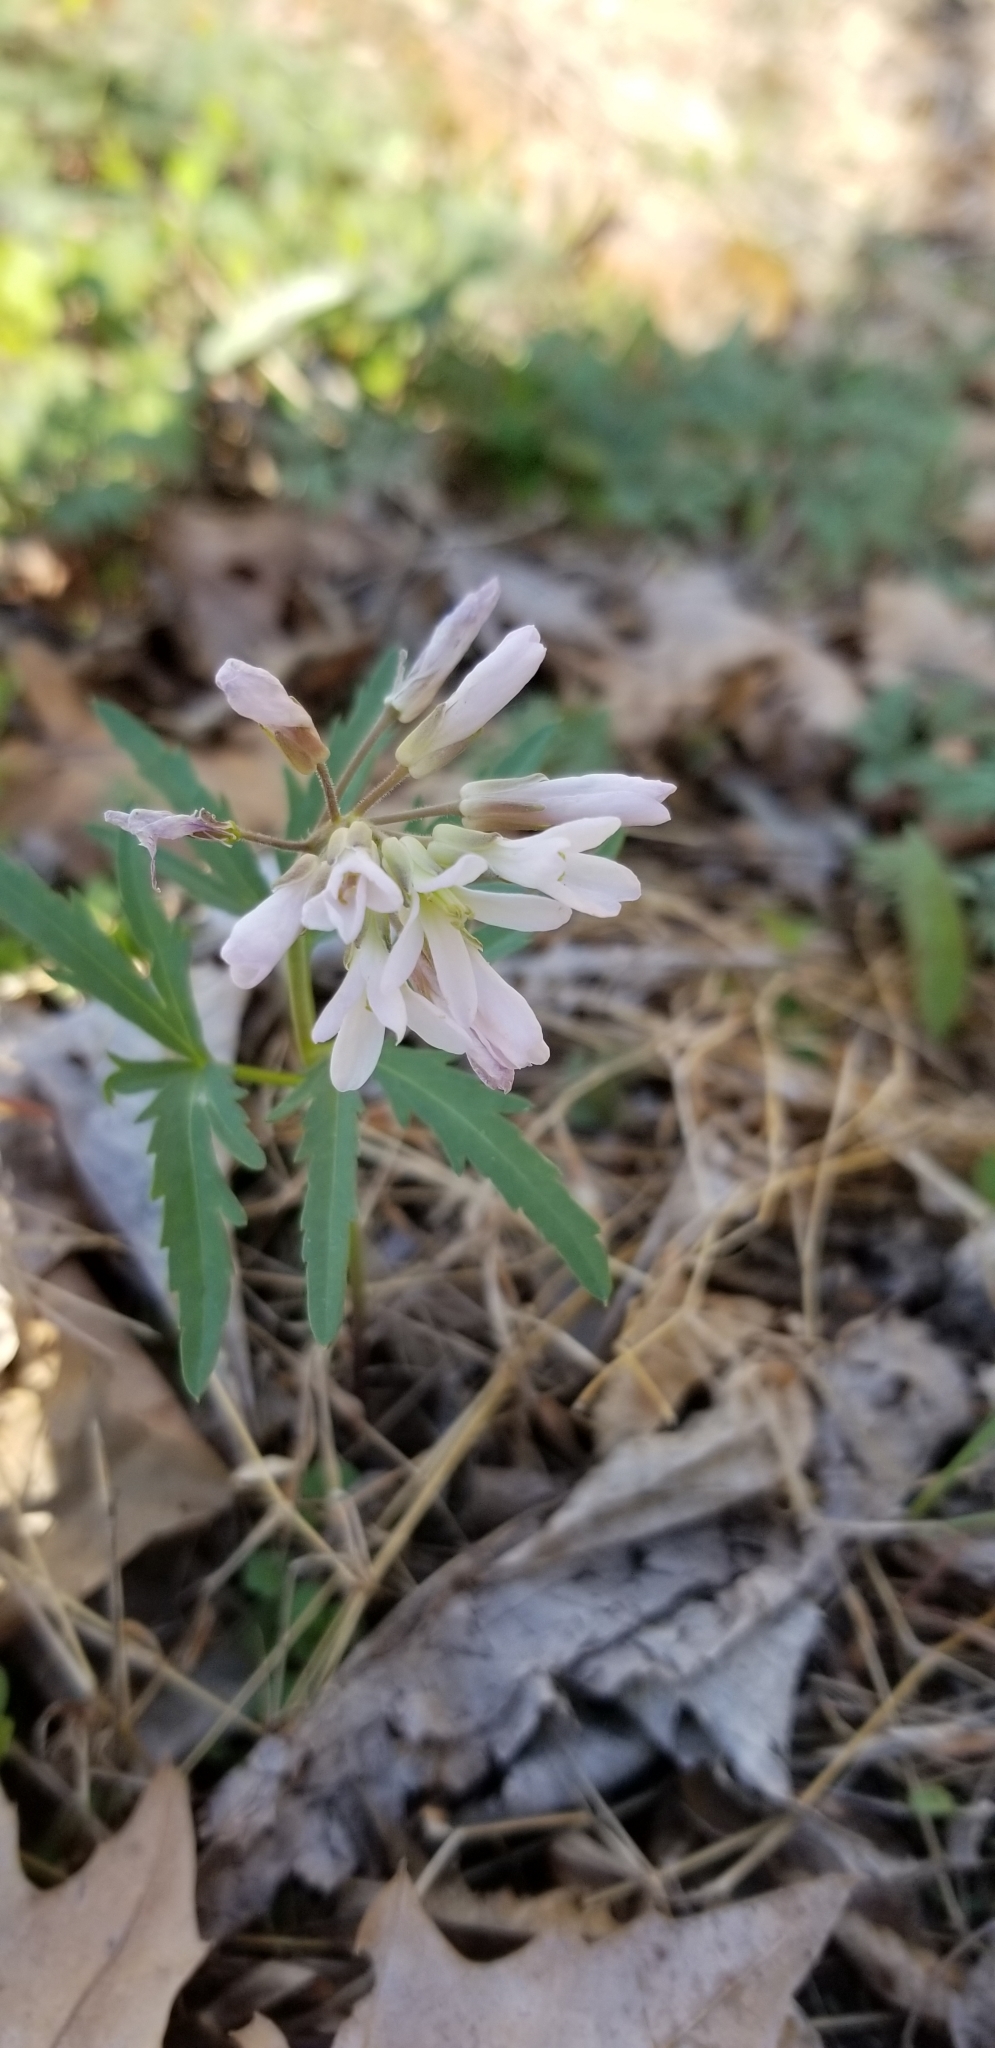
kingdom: Plantae
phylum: Tracheophyta
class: Magnoliopsida
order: Brassicales
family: Brassicaceae
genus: Cardamine
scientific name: Cardamine concatenata
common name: Cut-leaf toothcup
